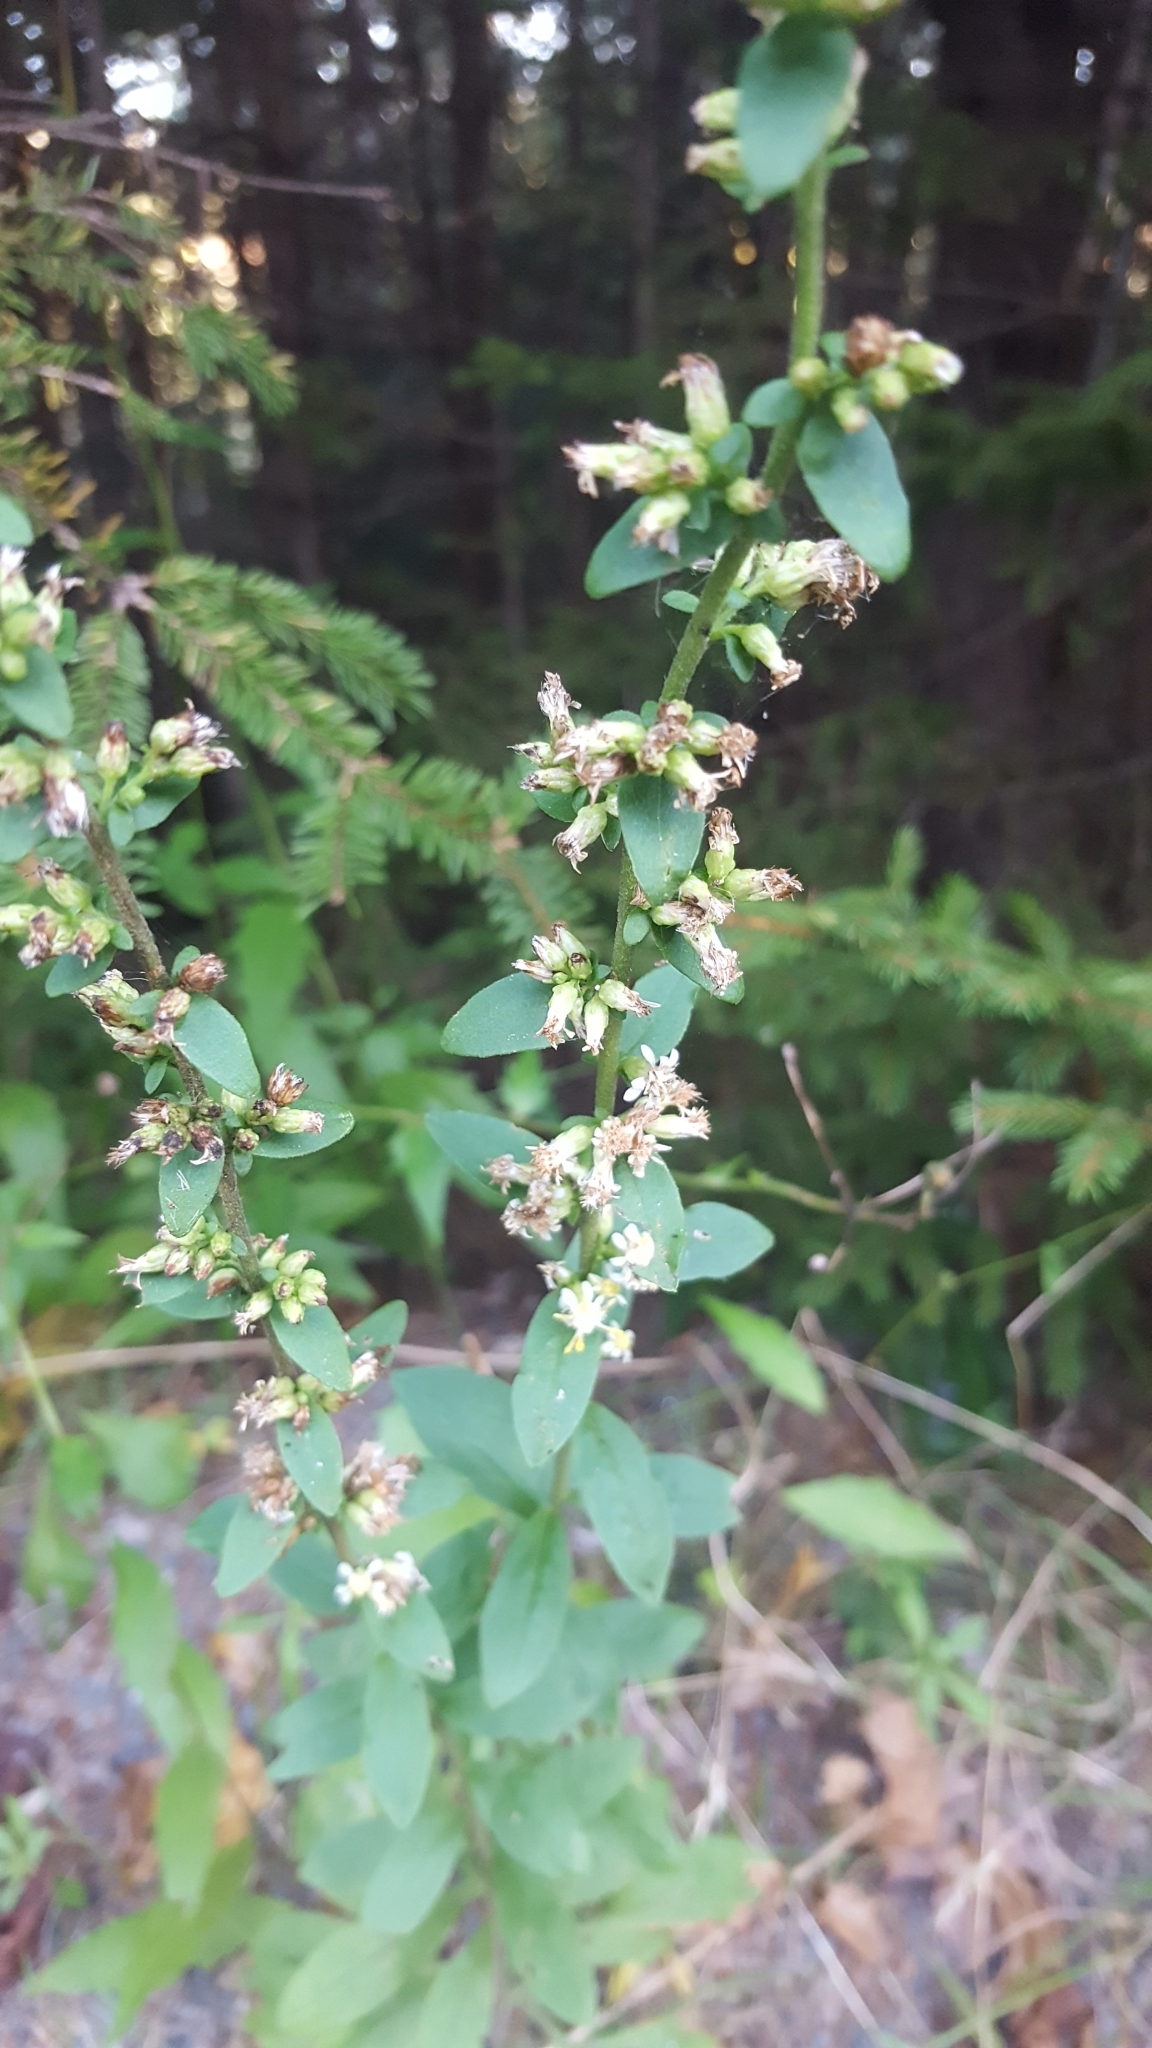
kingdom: Plantae
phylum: Tracheophyta
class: Magnoliopsida
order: Asterales
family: Asteraceae
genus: Solidago
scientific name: Solidago bicolor
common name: Silverrod
